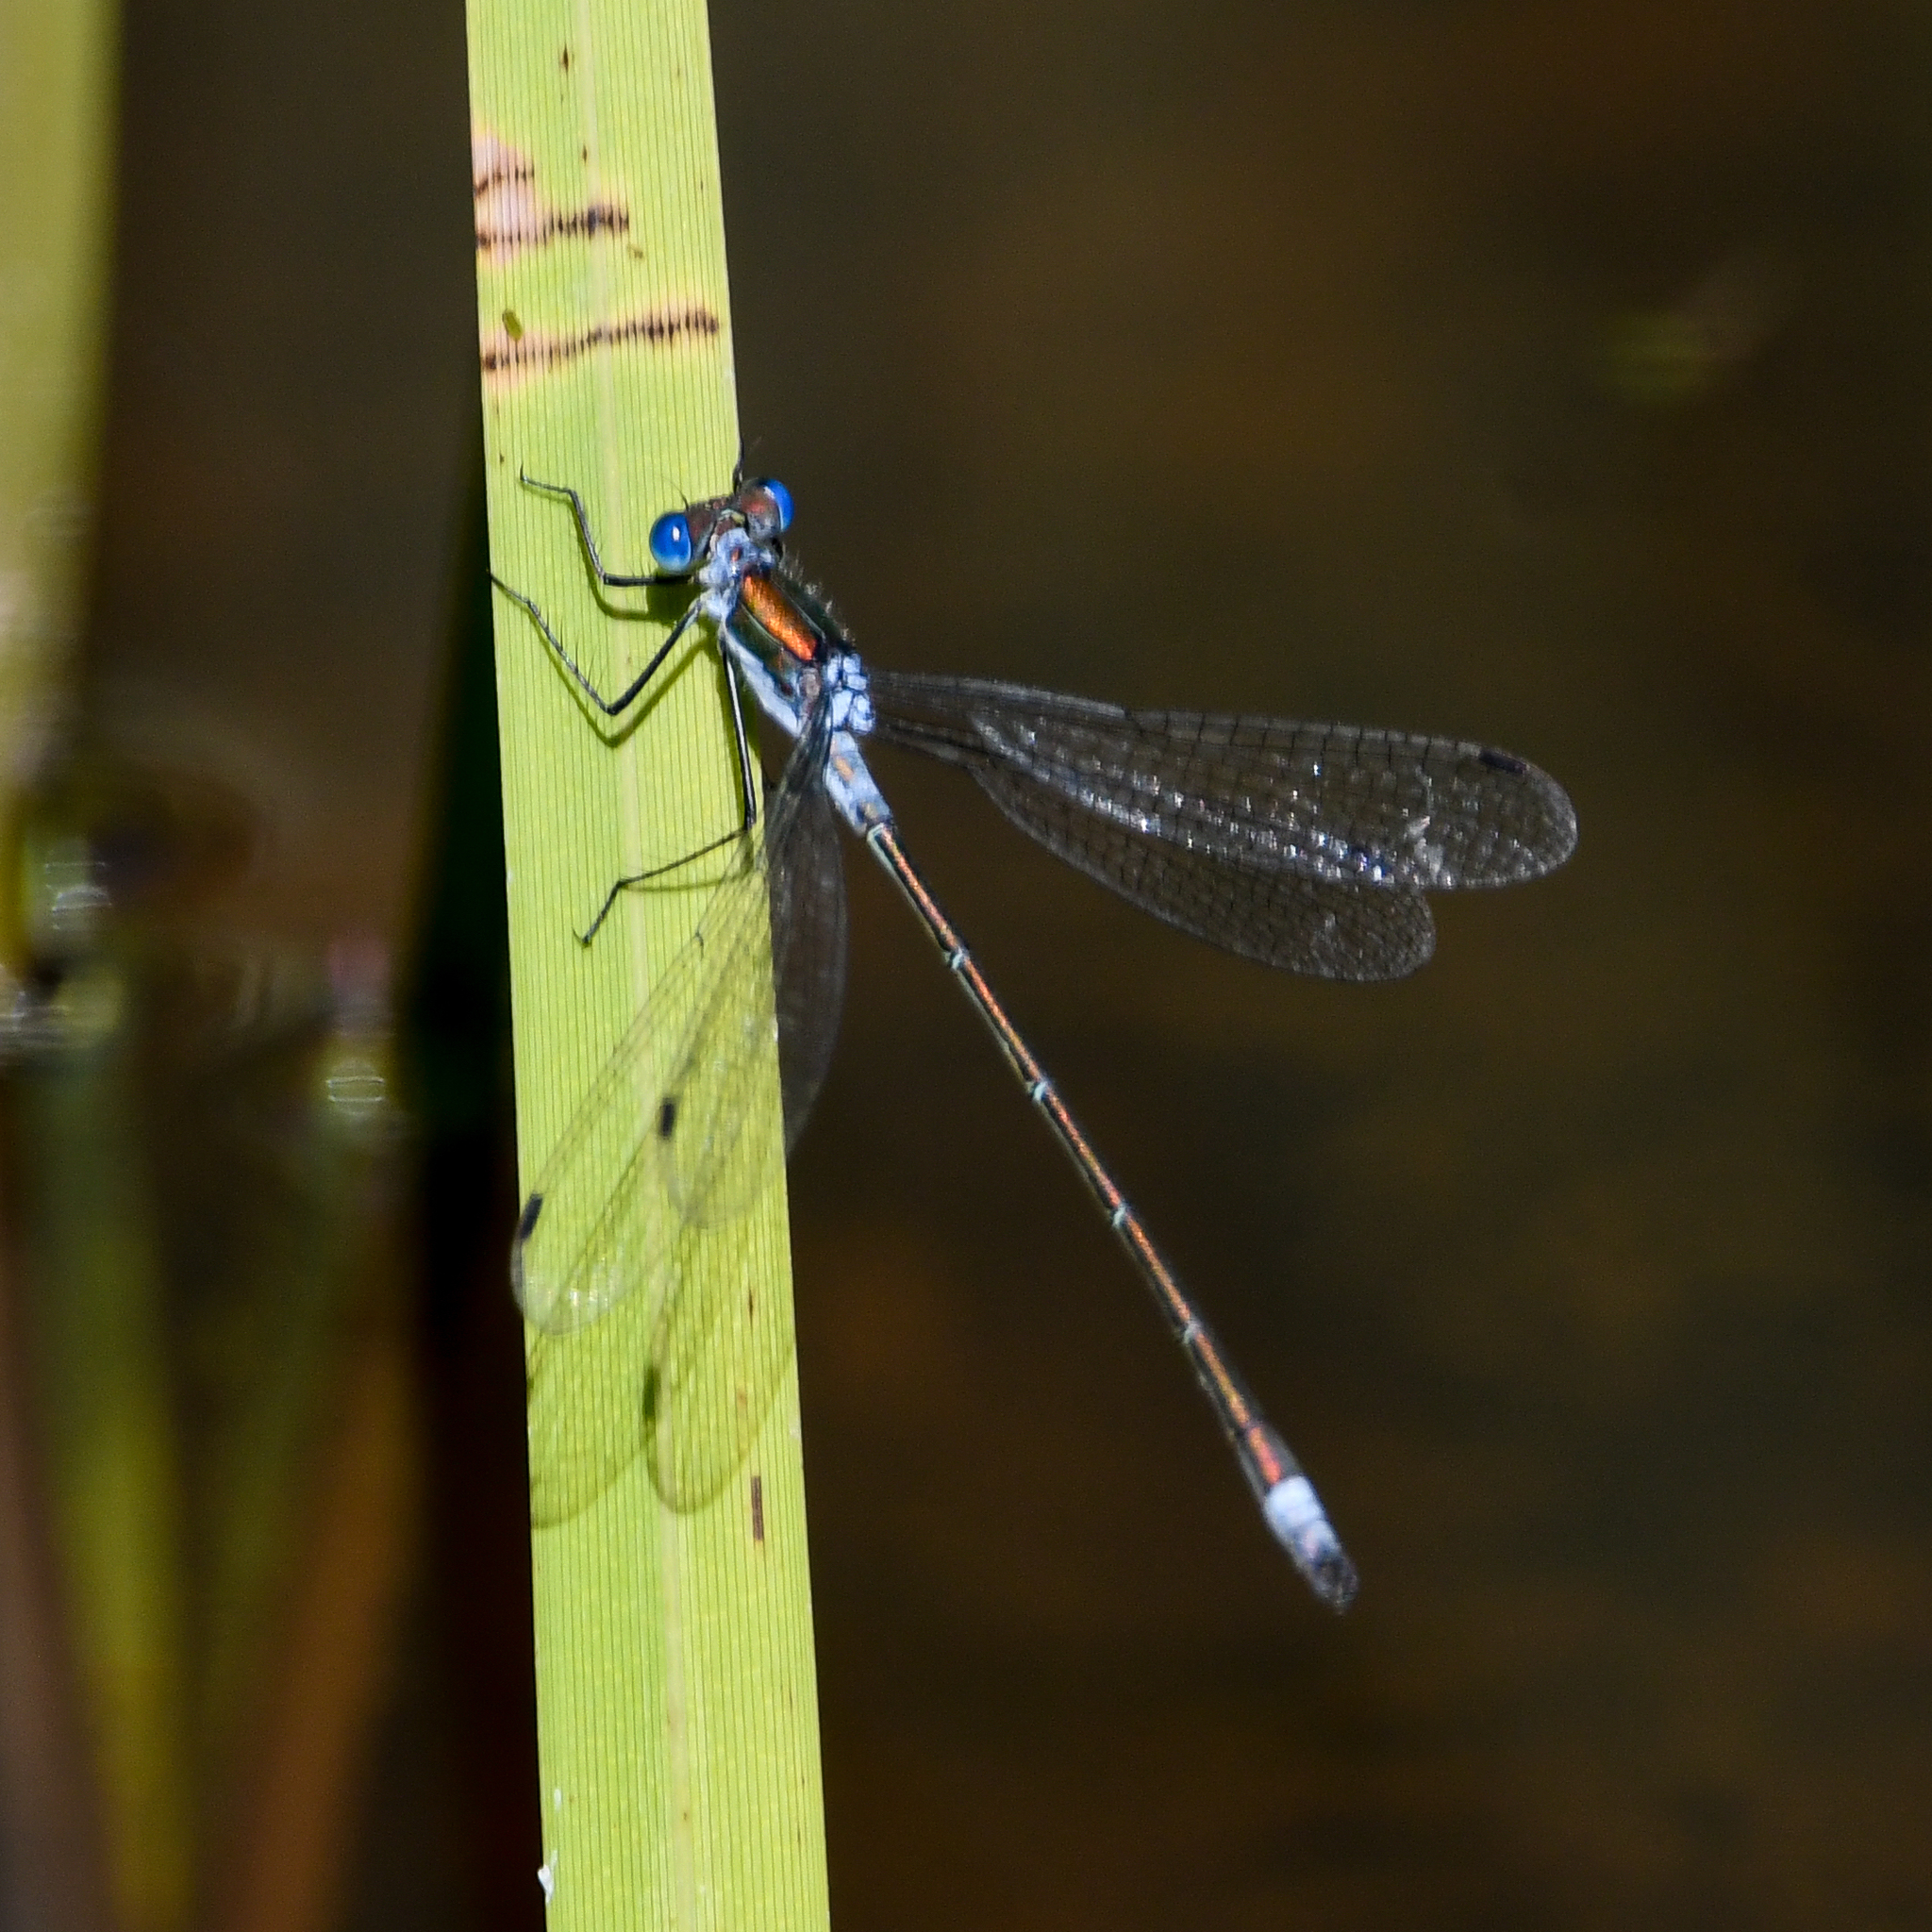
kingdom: Animalia
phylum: Arthropoda
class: Insecta
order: Odonata
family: Lestidae
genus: Lestes
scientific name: Lestes sponsa
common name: Common spreadwing
